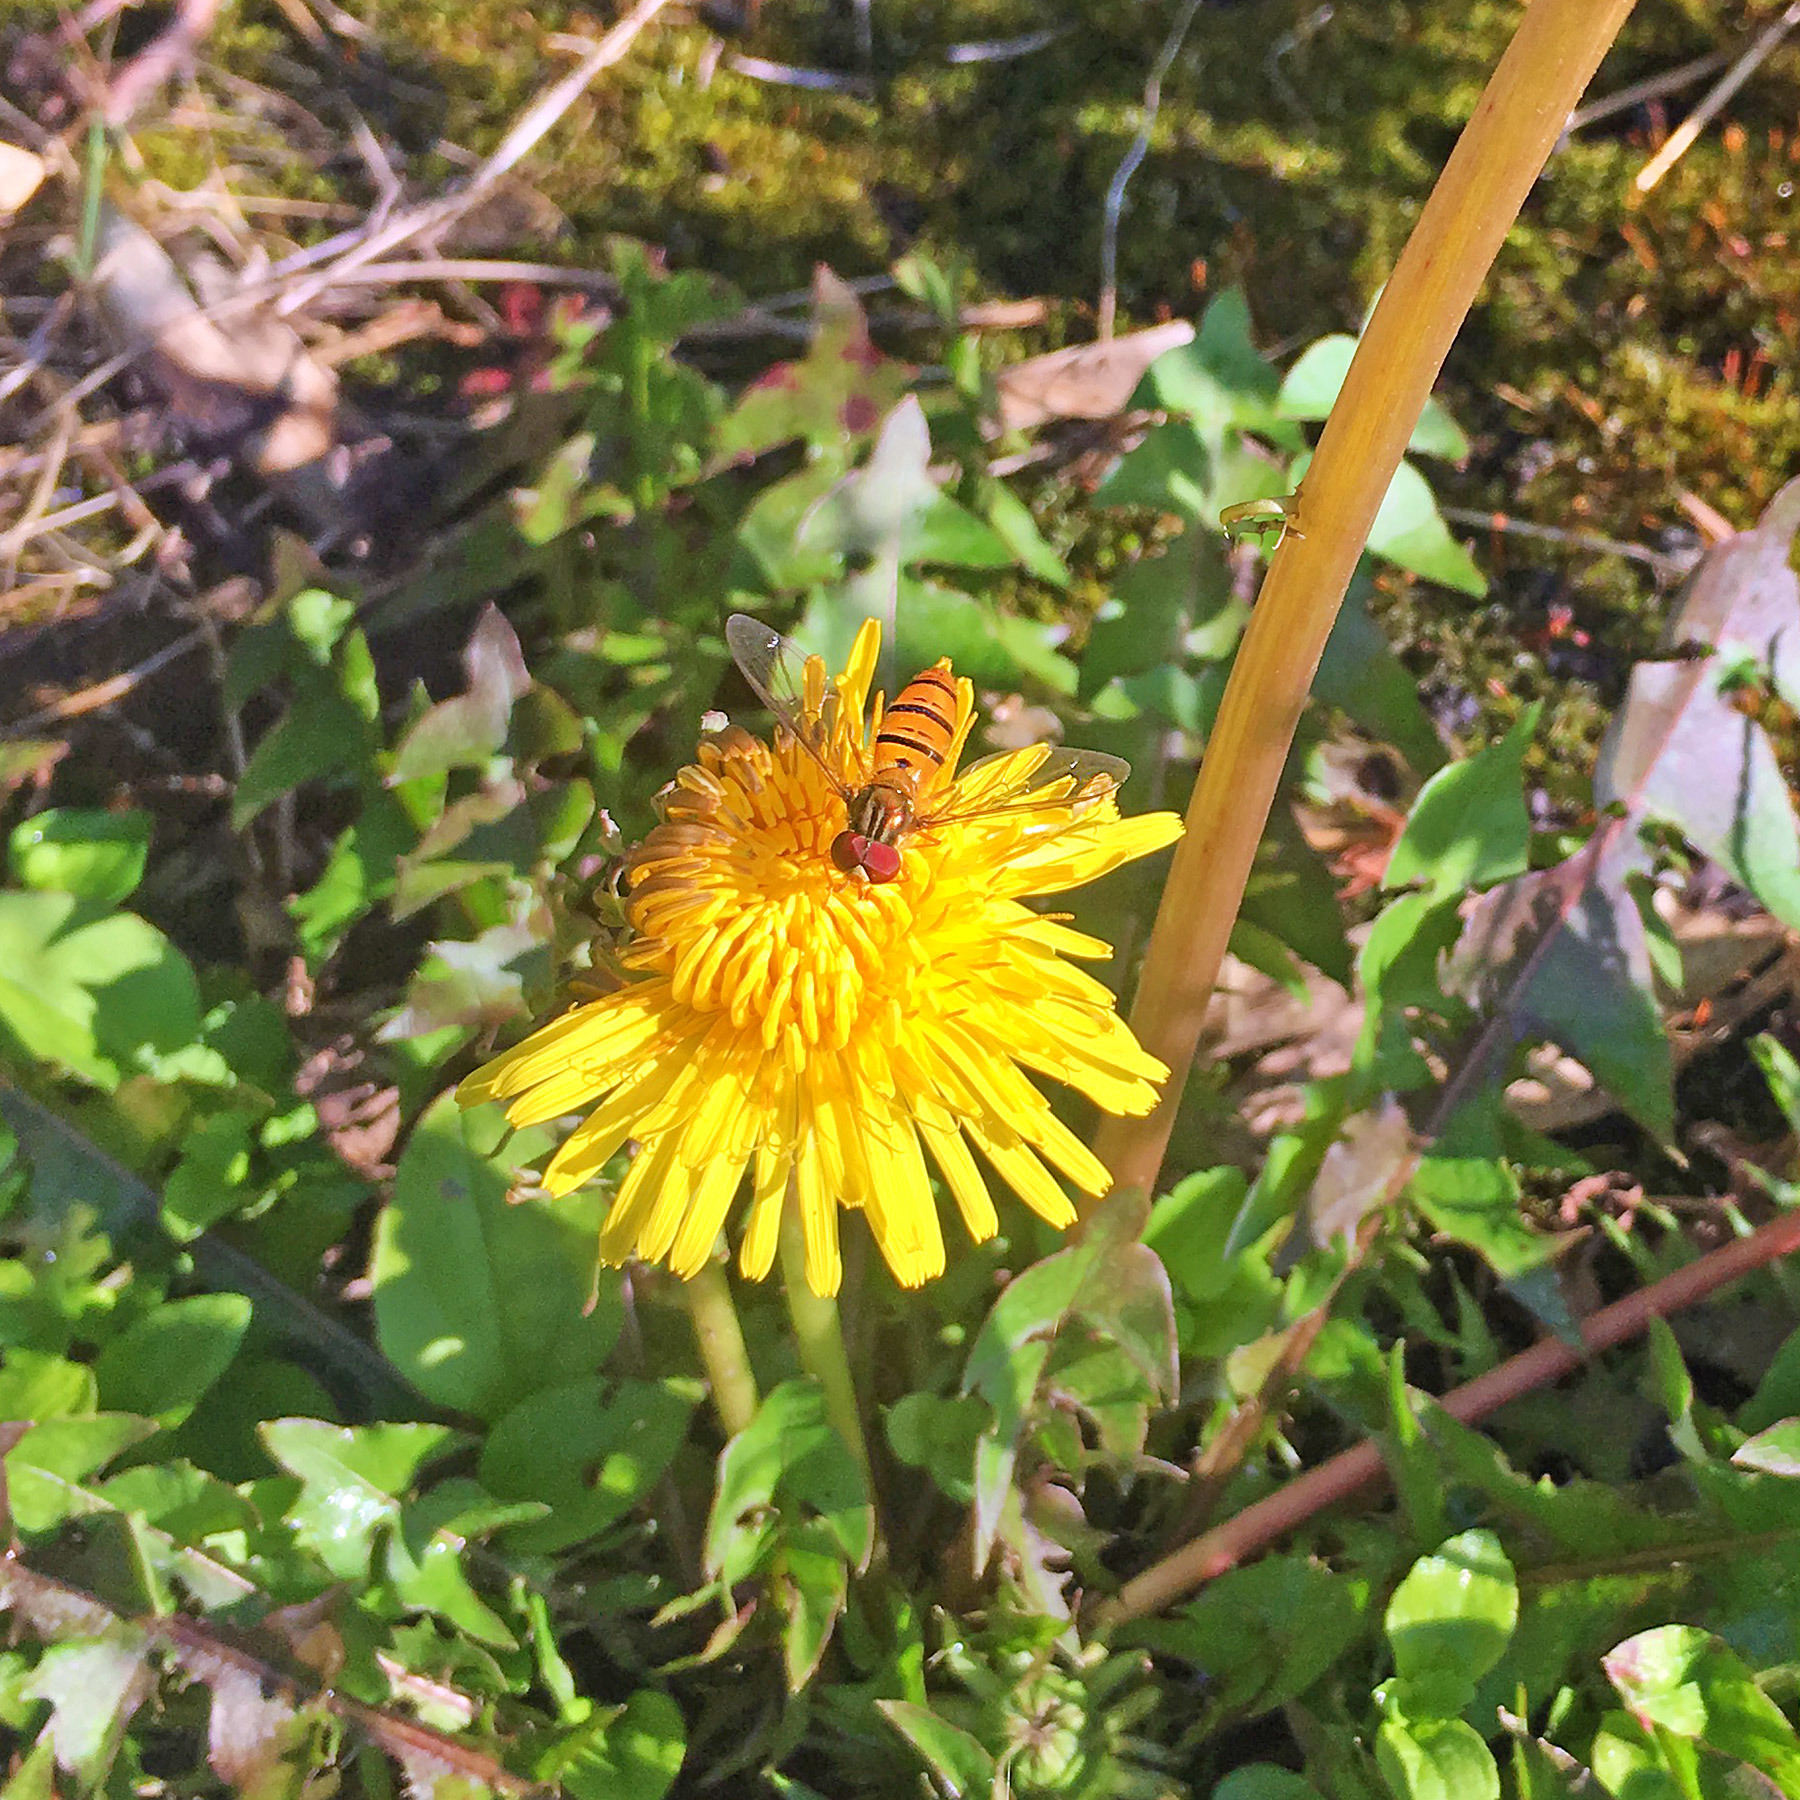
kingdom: Animalia
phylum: Arthropoda
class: Insecta
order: Diptera
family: Syrphidae
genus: Episyrphus
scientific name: Episyrphus balteatus
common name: Marmalade hoverfly
